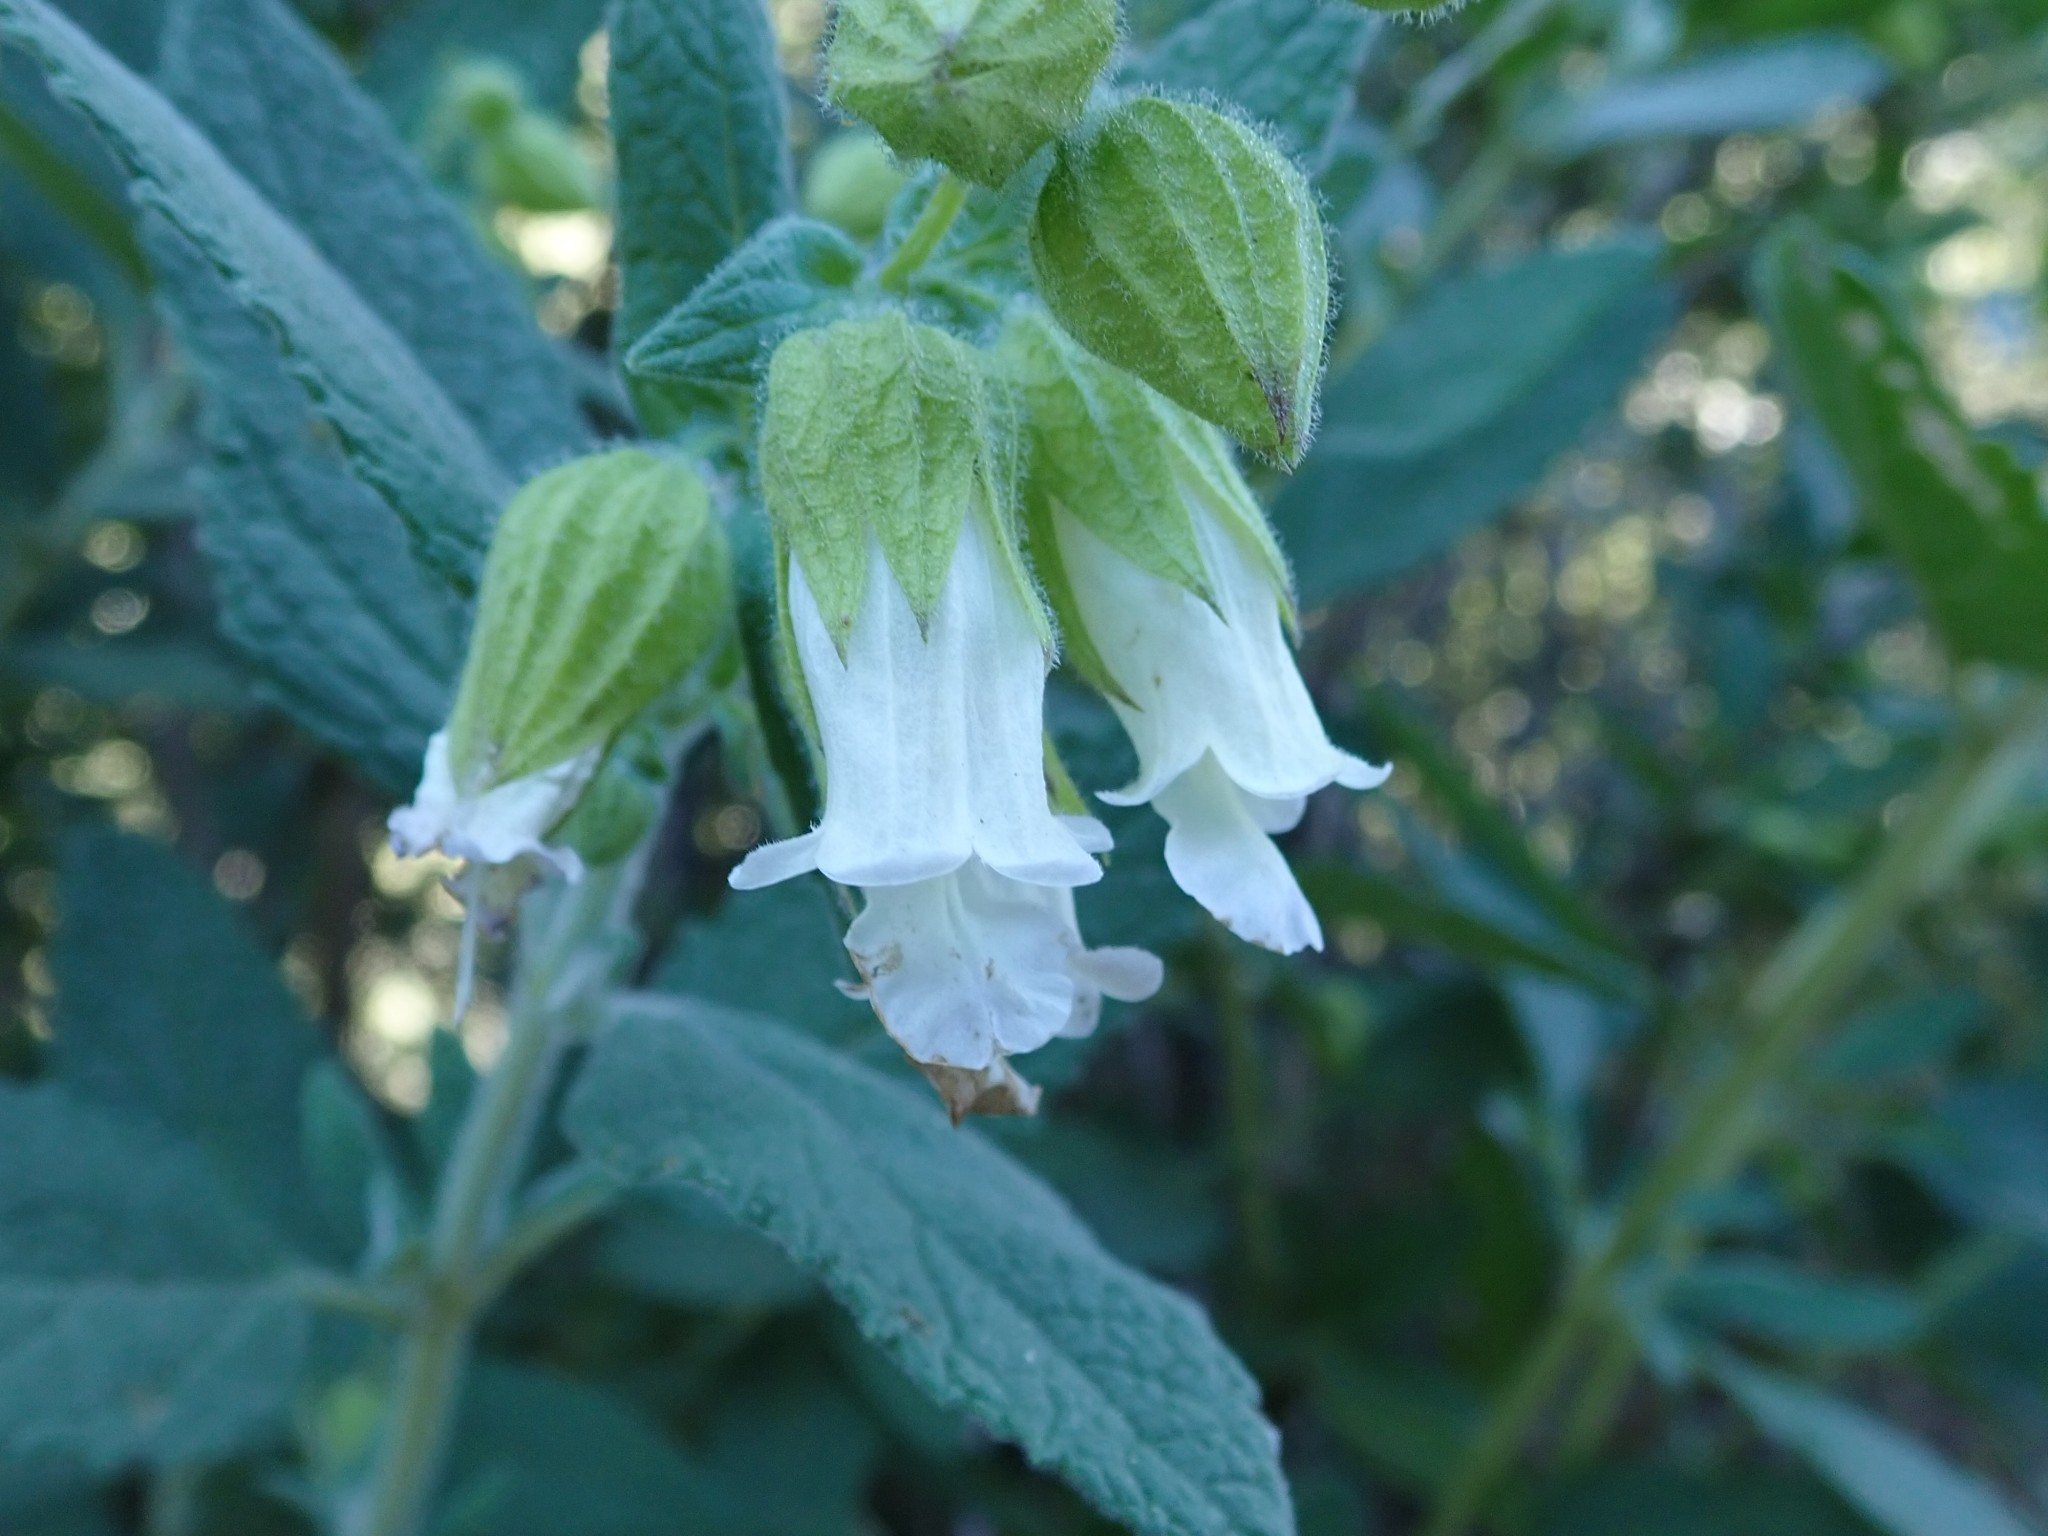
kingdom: Plantae
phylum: Tracheophyta
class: Magnoliopsida
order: Lamiales
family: Lamiaceae
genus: Lepechinia
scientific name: Lepechinia calycina
